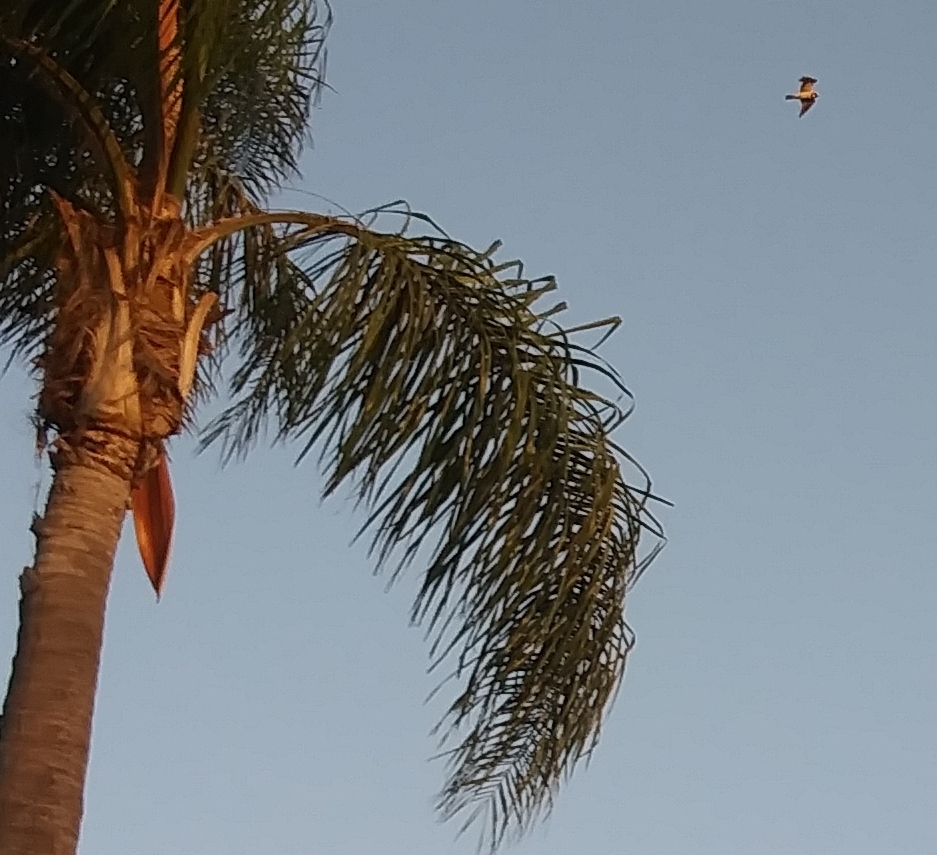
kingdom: Animalia
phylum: Chordata
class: Aves
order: Accipitriformes
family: Accipitridae
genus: Elanus
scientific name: Elanus leucurus
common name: White-tailed kite
